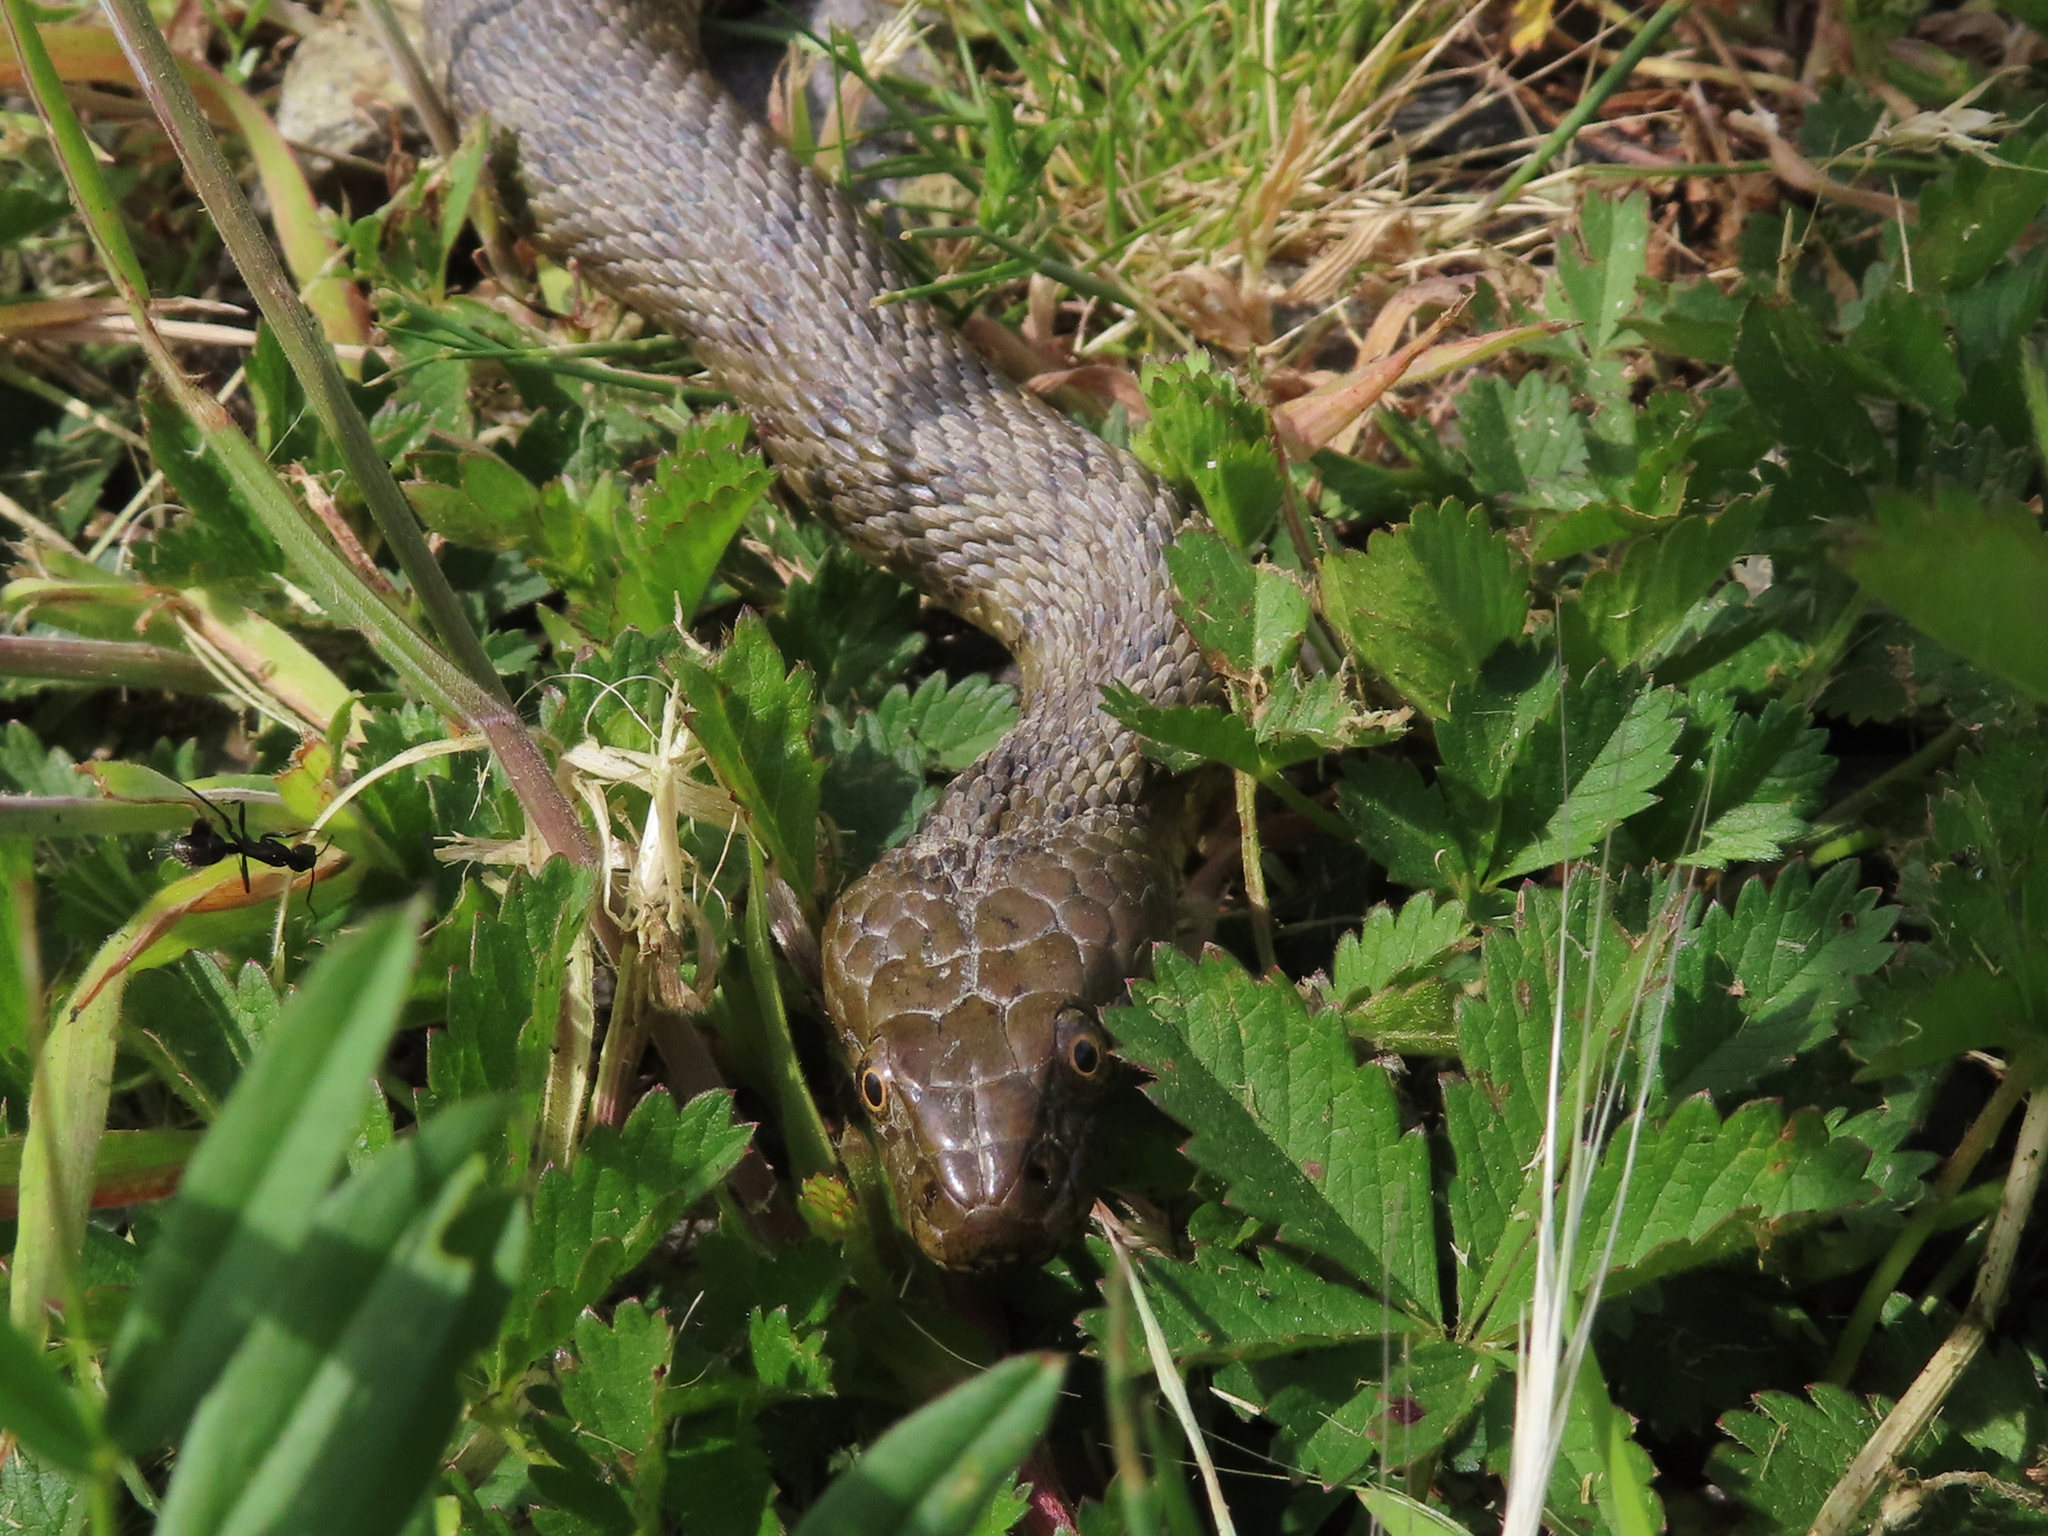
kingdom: Animalia
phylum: Chordata
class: Squamata
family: Colubridae
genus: Natrix
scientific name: Natrix tessellata
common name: Dice snake
